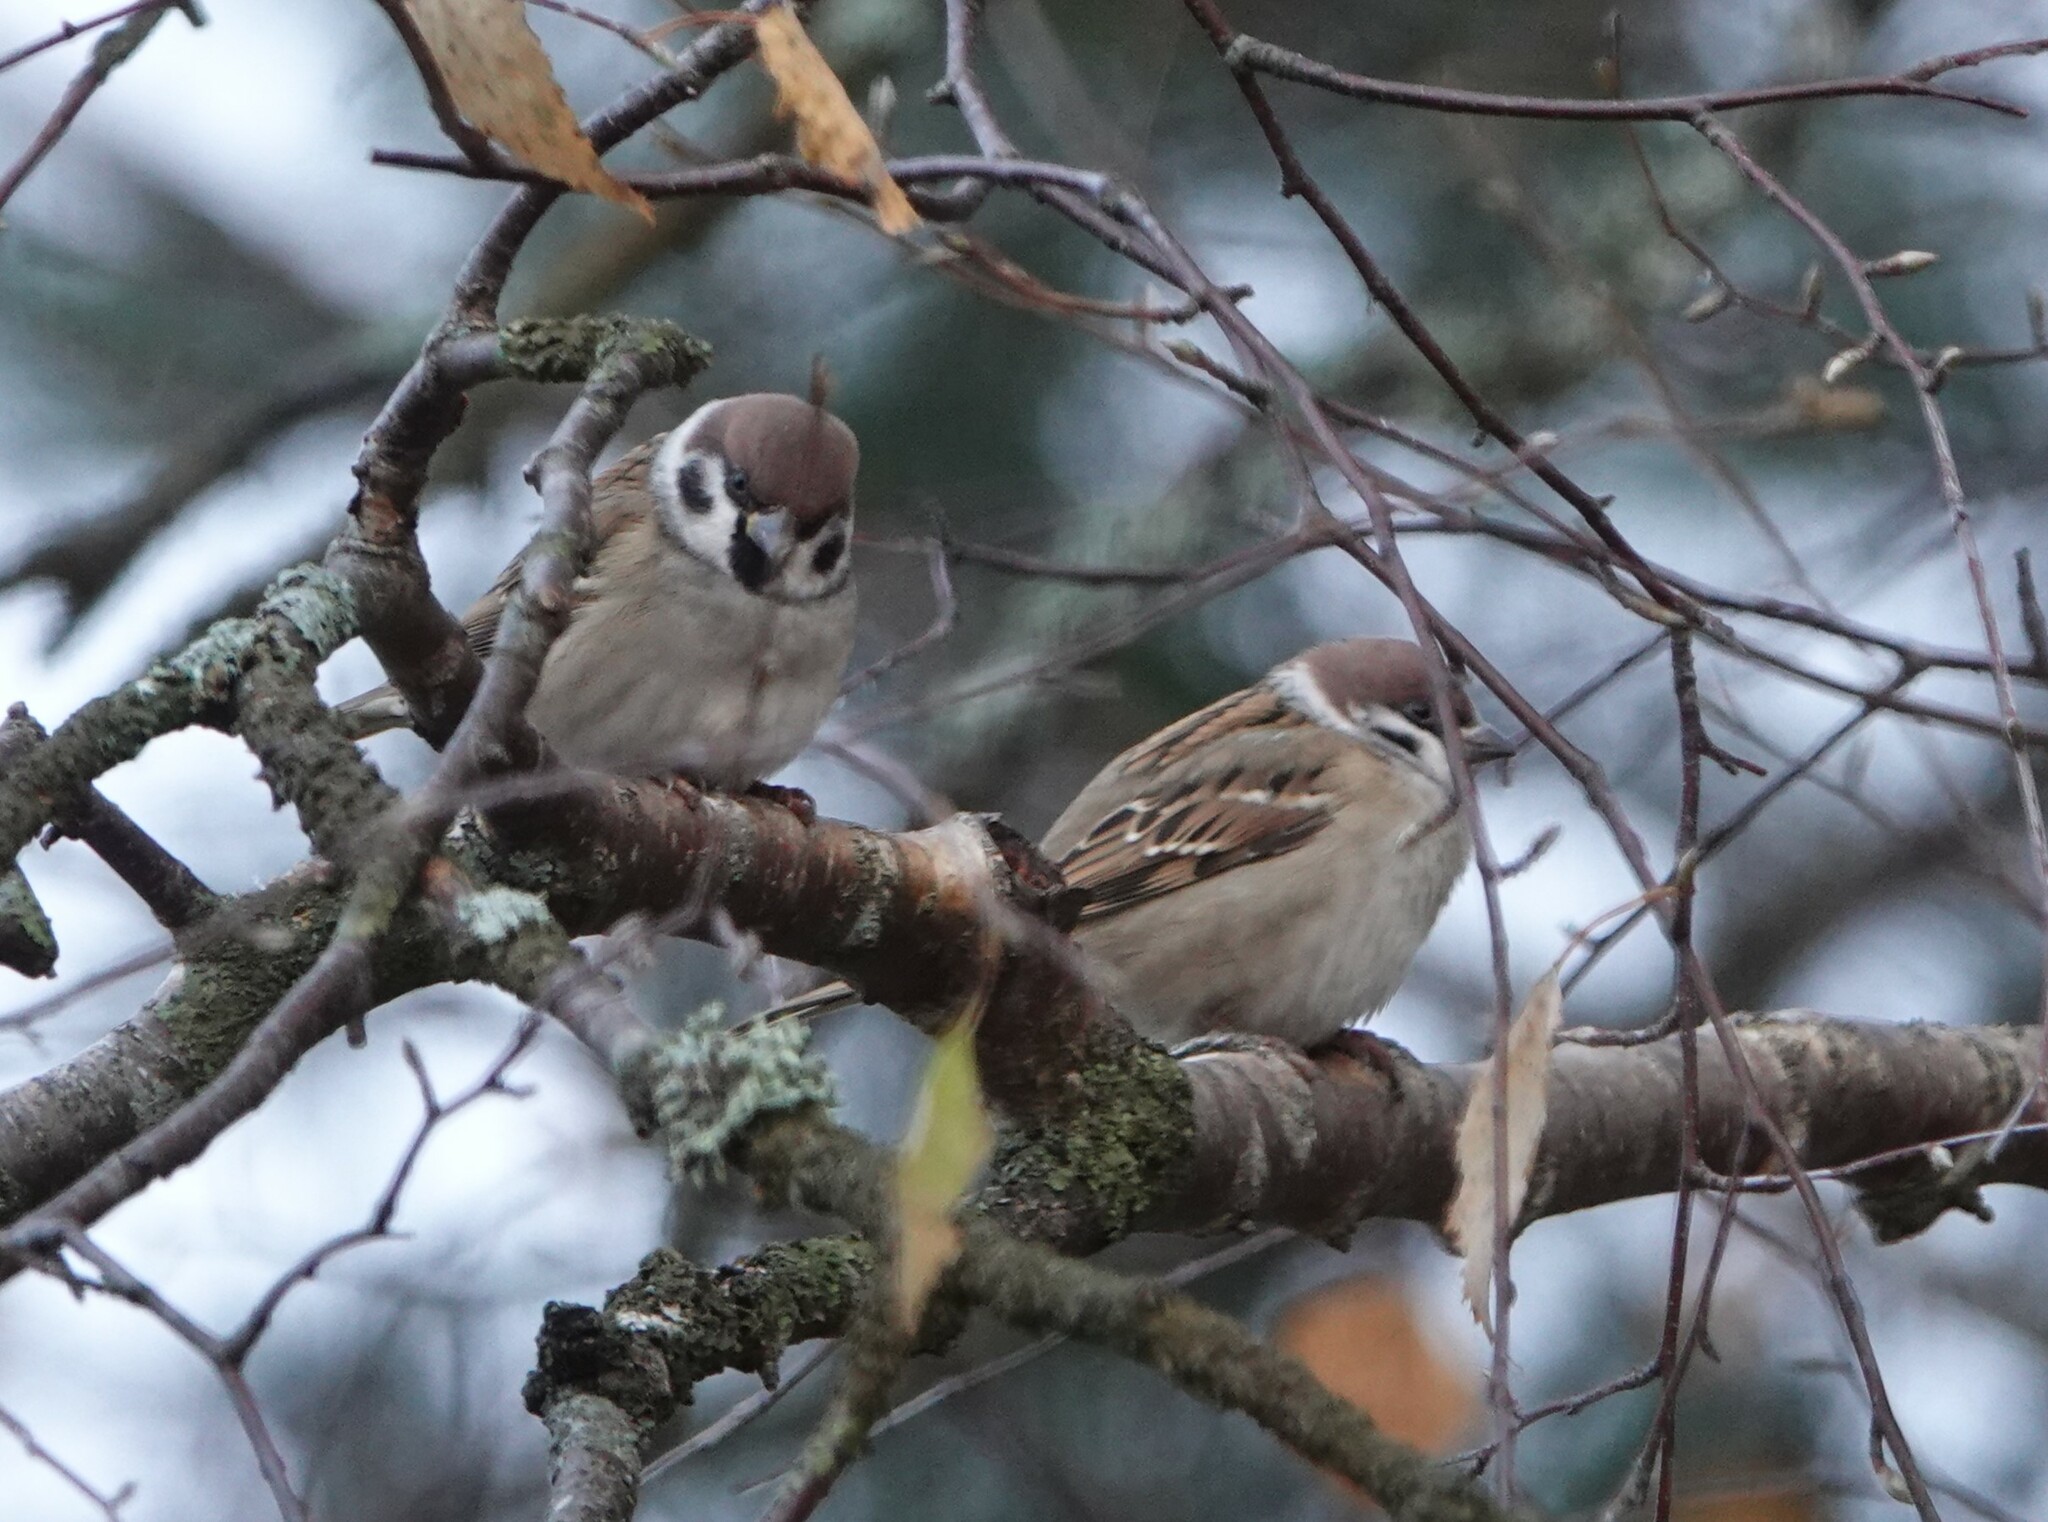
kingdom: Animalia
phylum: Chordata
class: Aves
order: Passeriformes
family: Passeridae
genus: Passer
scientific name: Passer montanus
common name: Eurasian tree sparrow
